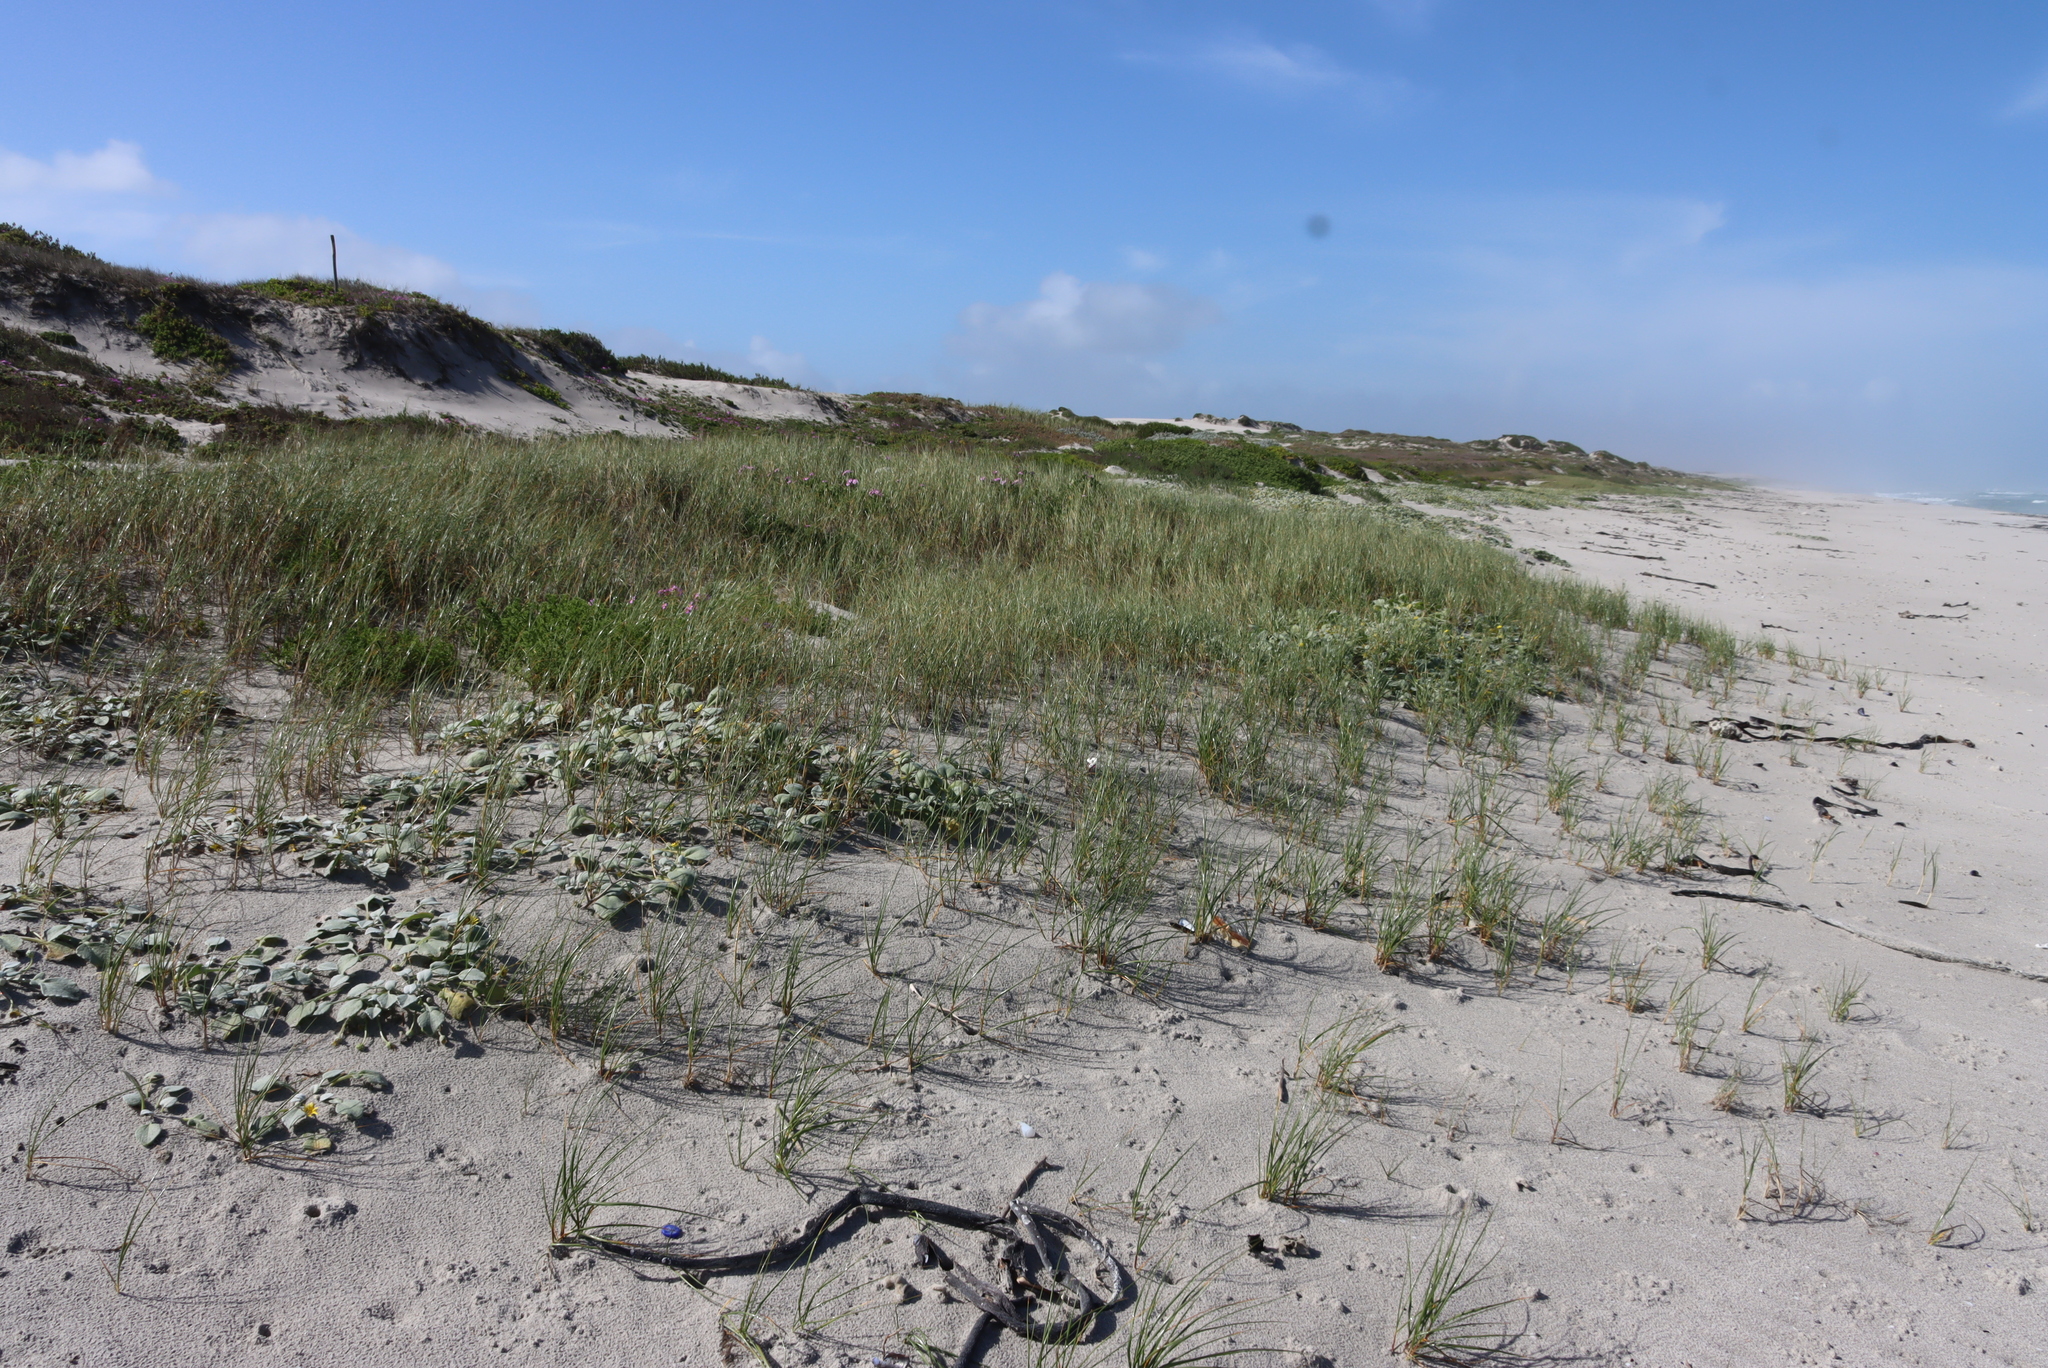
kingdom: Plantae
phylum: Tracheophyta
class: Liliopsida
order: Poales
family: Poaceae
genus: Thinopyrum
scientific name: Thinopyrum distichum
